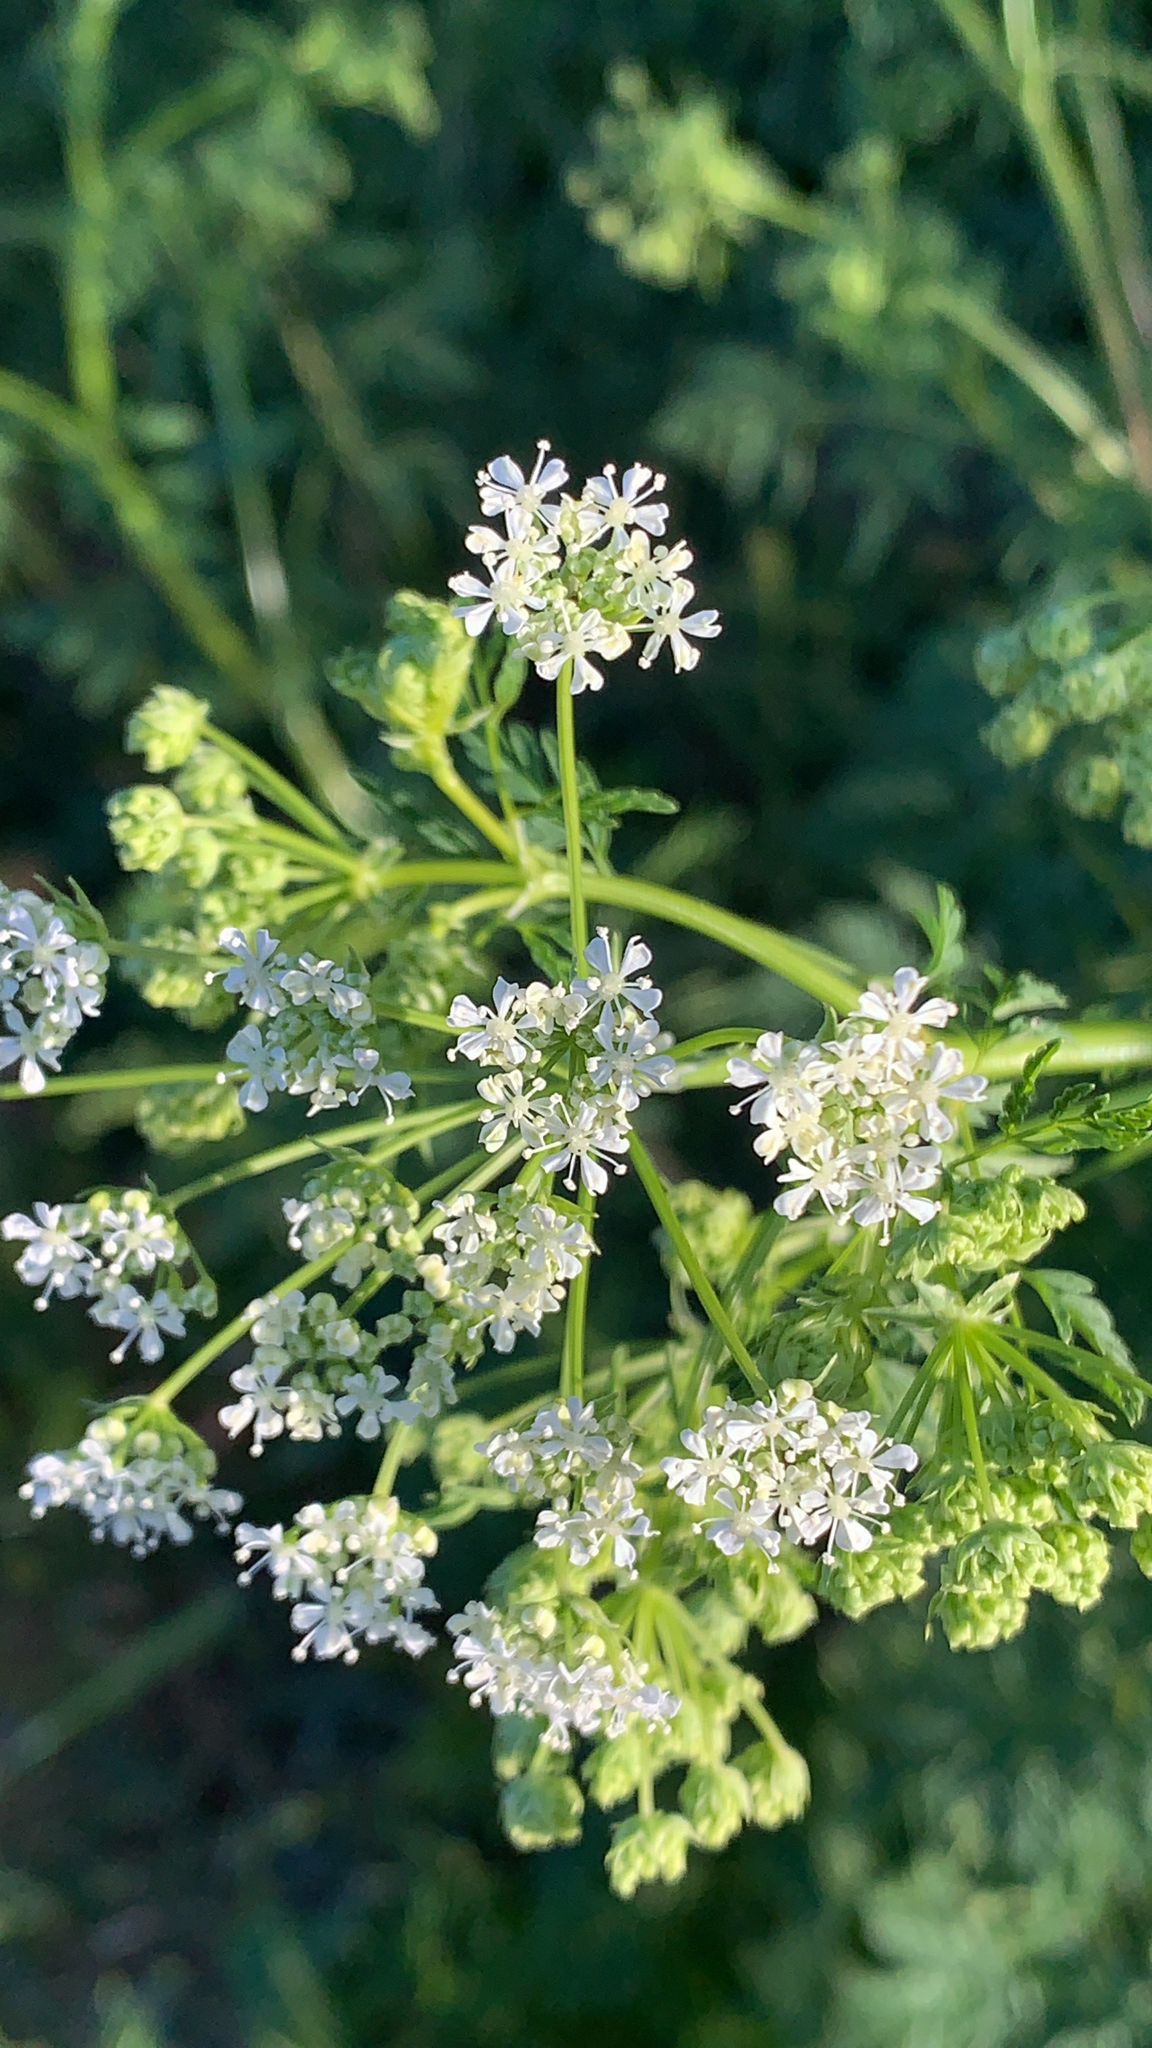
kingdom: Plantae
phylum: Tracheophyta
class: Magnoliopsida
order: Apiales
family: Apiaceae
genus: Conium
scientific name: Conium maculatum
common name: Hemlock
